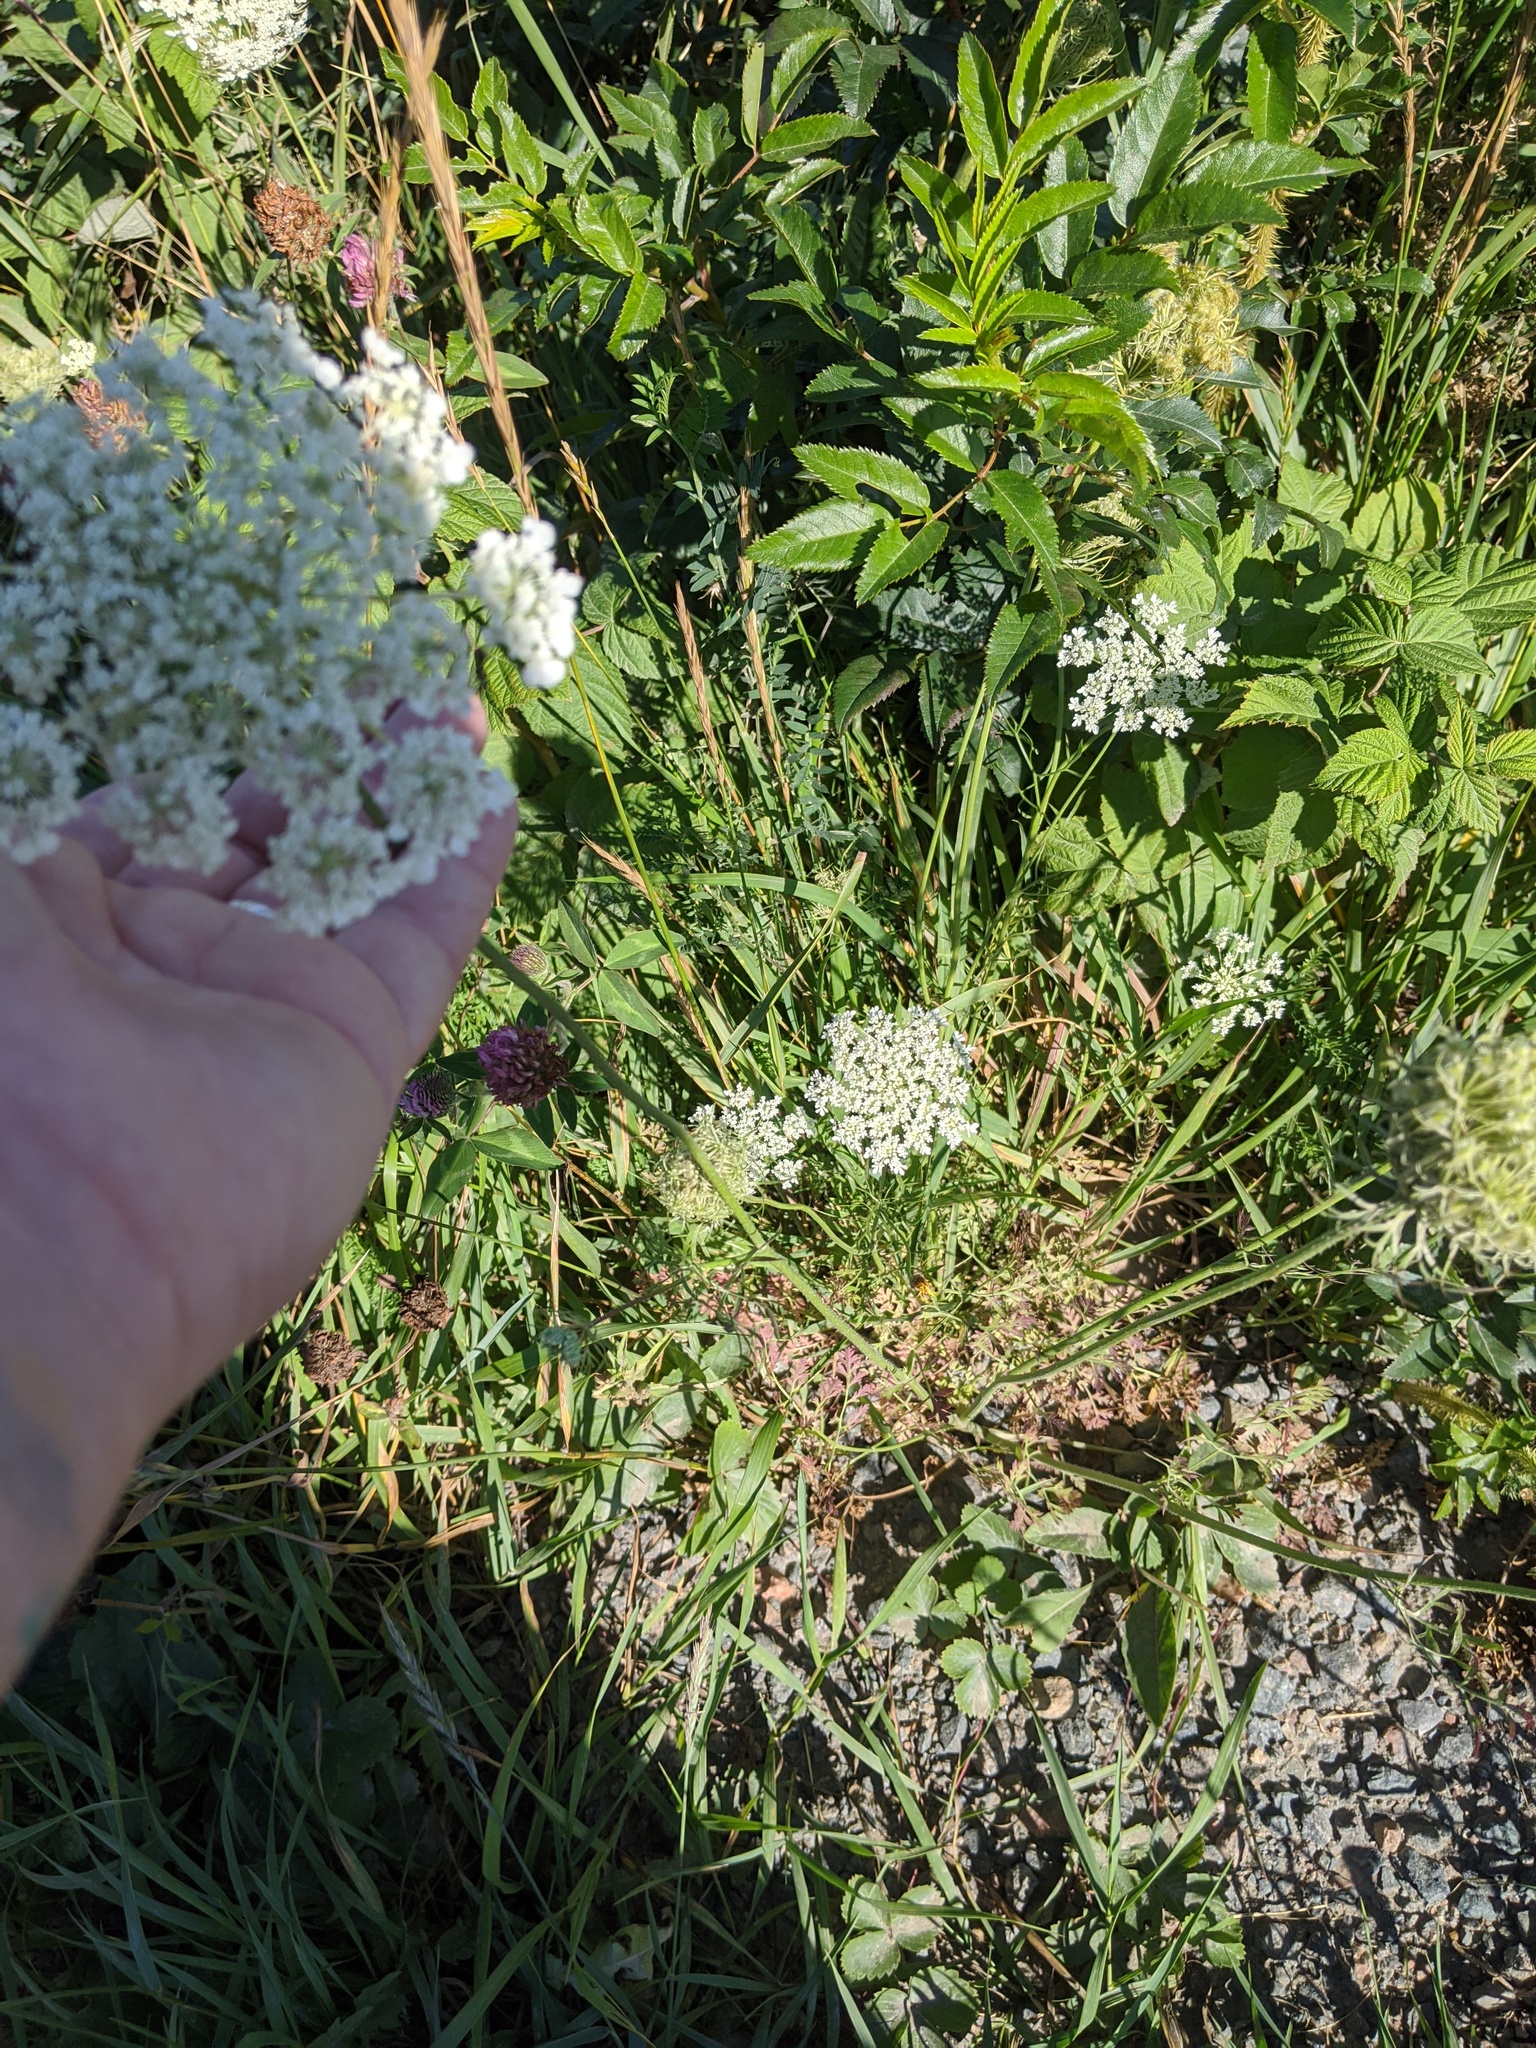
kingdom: Plantae
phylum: Tracheophyta
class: Magnoliopsida
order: Apiales
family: Apiaceae
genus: Daucus
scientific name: Daucus carota
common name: Wild carrot
